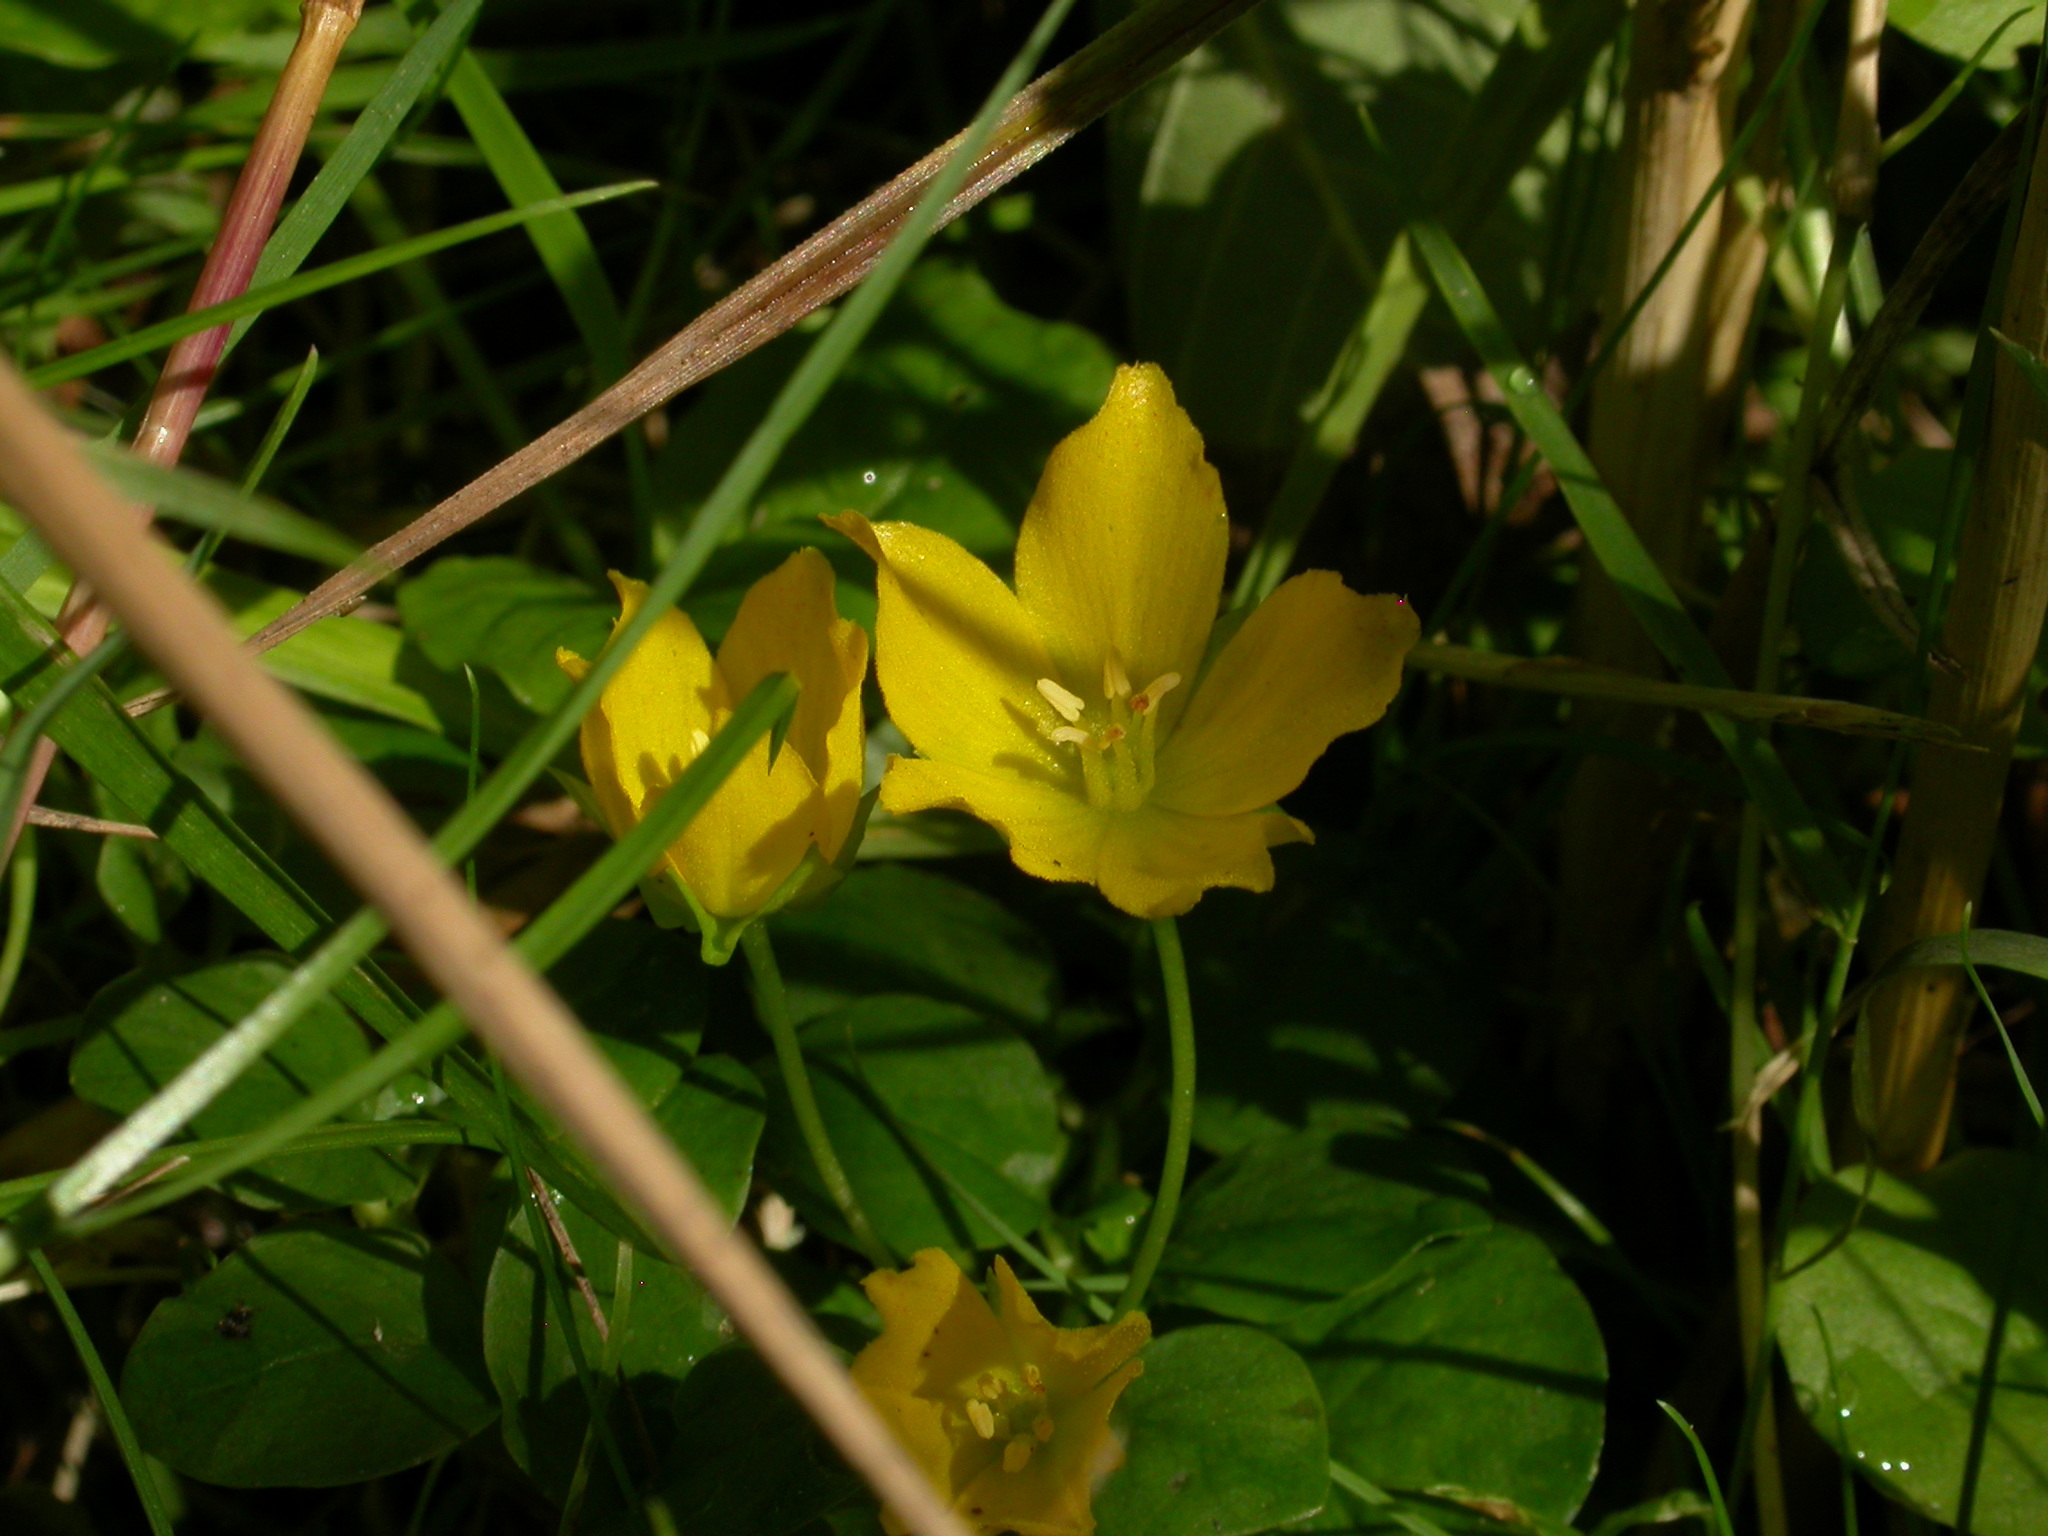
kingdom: Plantae
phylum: Tracheophyta
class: Magnoliopsida
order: Ericales
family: Primulaceae
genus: Lysimachia
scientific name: Lysimachia nummularia
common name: Moneywort
